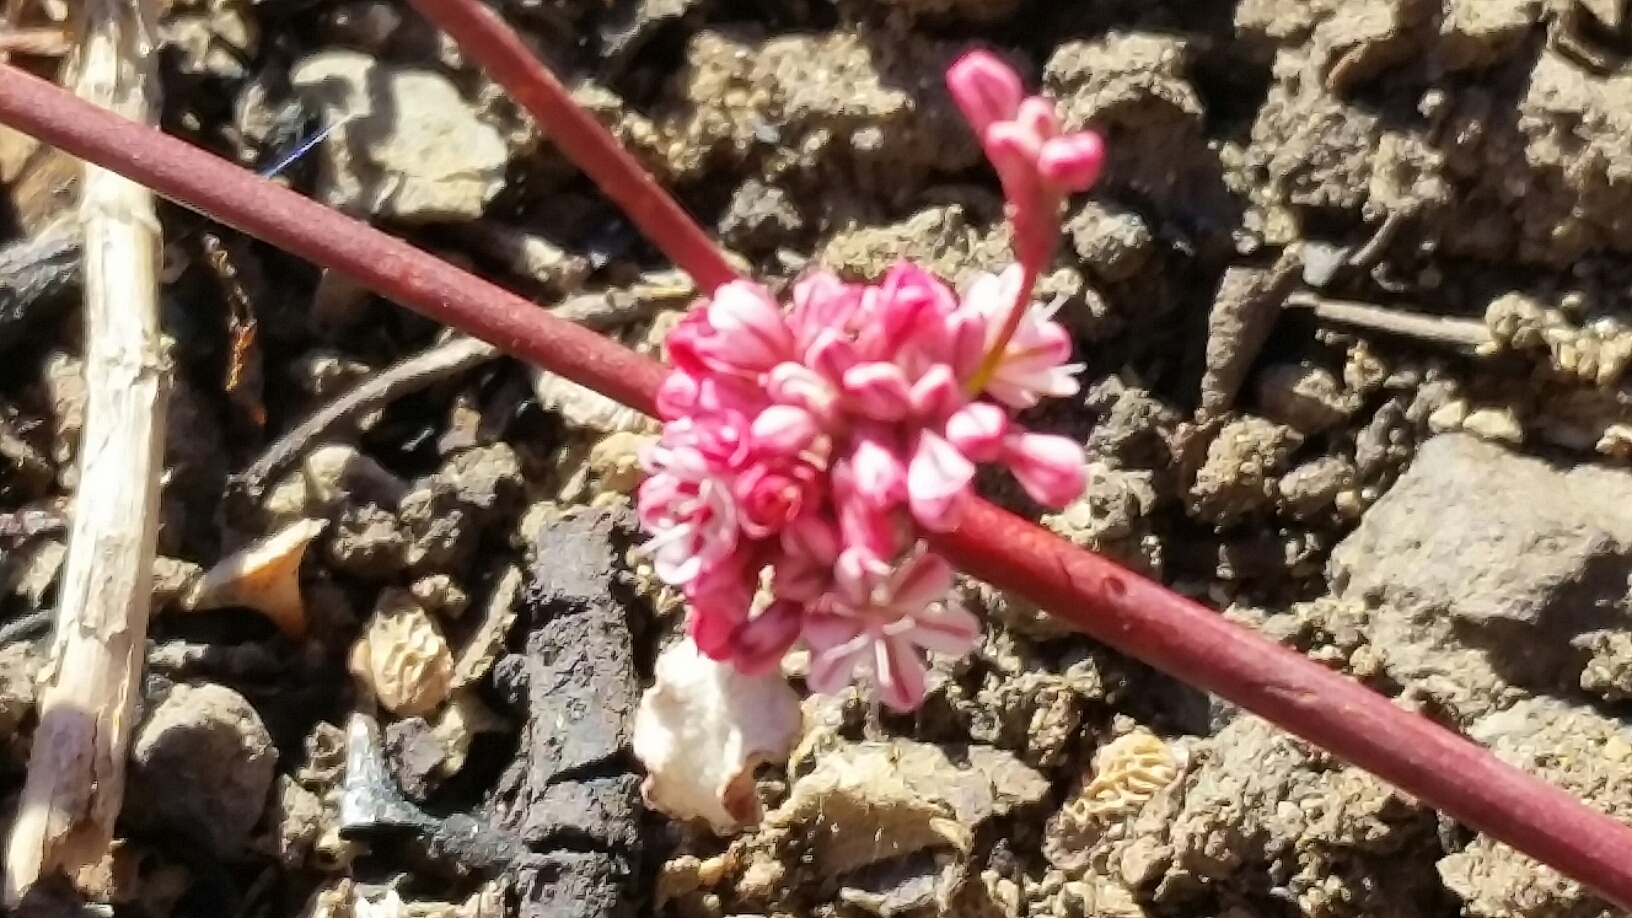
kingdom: Plantae
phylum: Tracheophyta
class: Magnoliopsida
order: Caryophyllales
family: Polygonaceae
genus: Eriogonum
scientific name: Eriogonum luteolum
